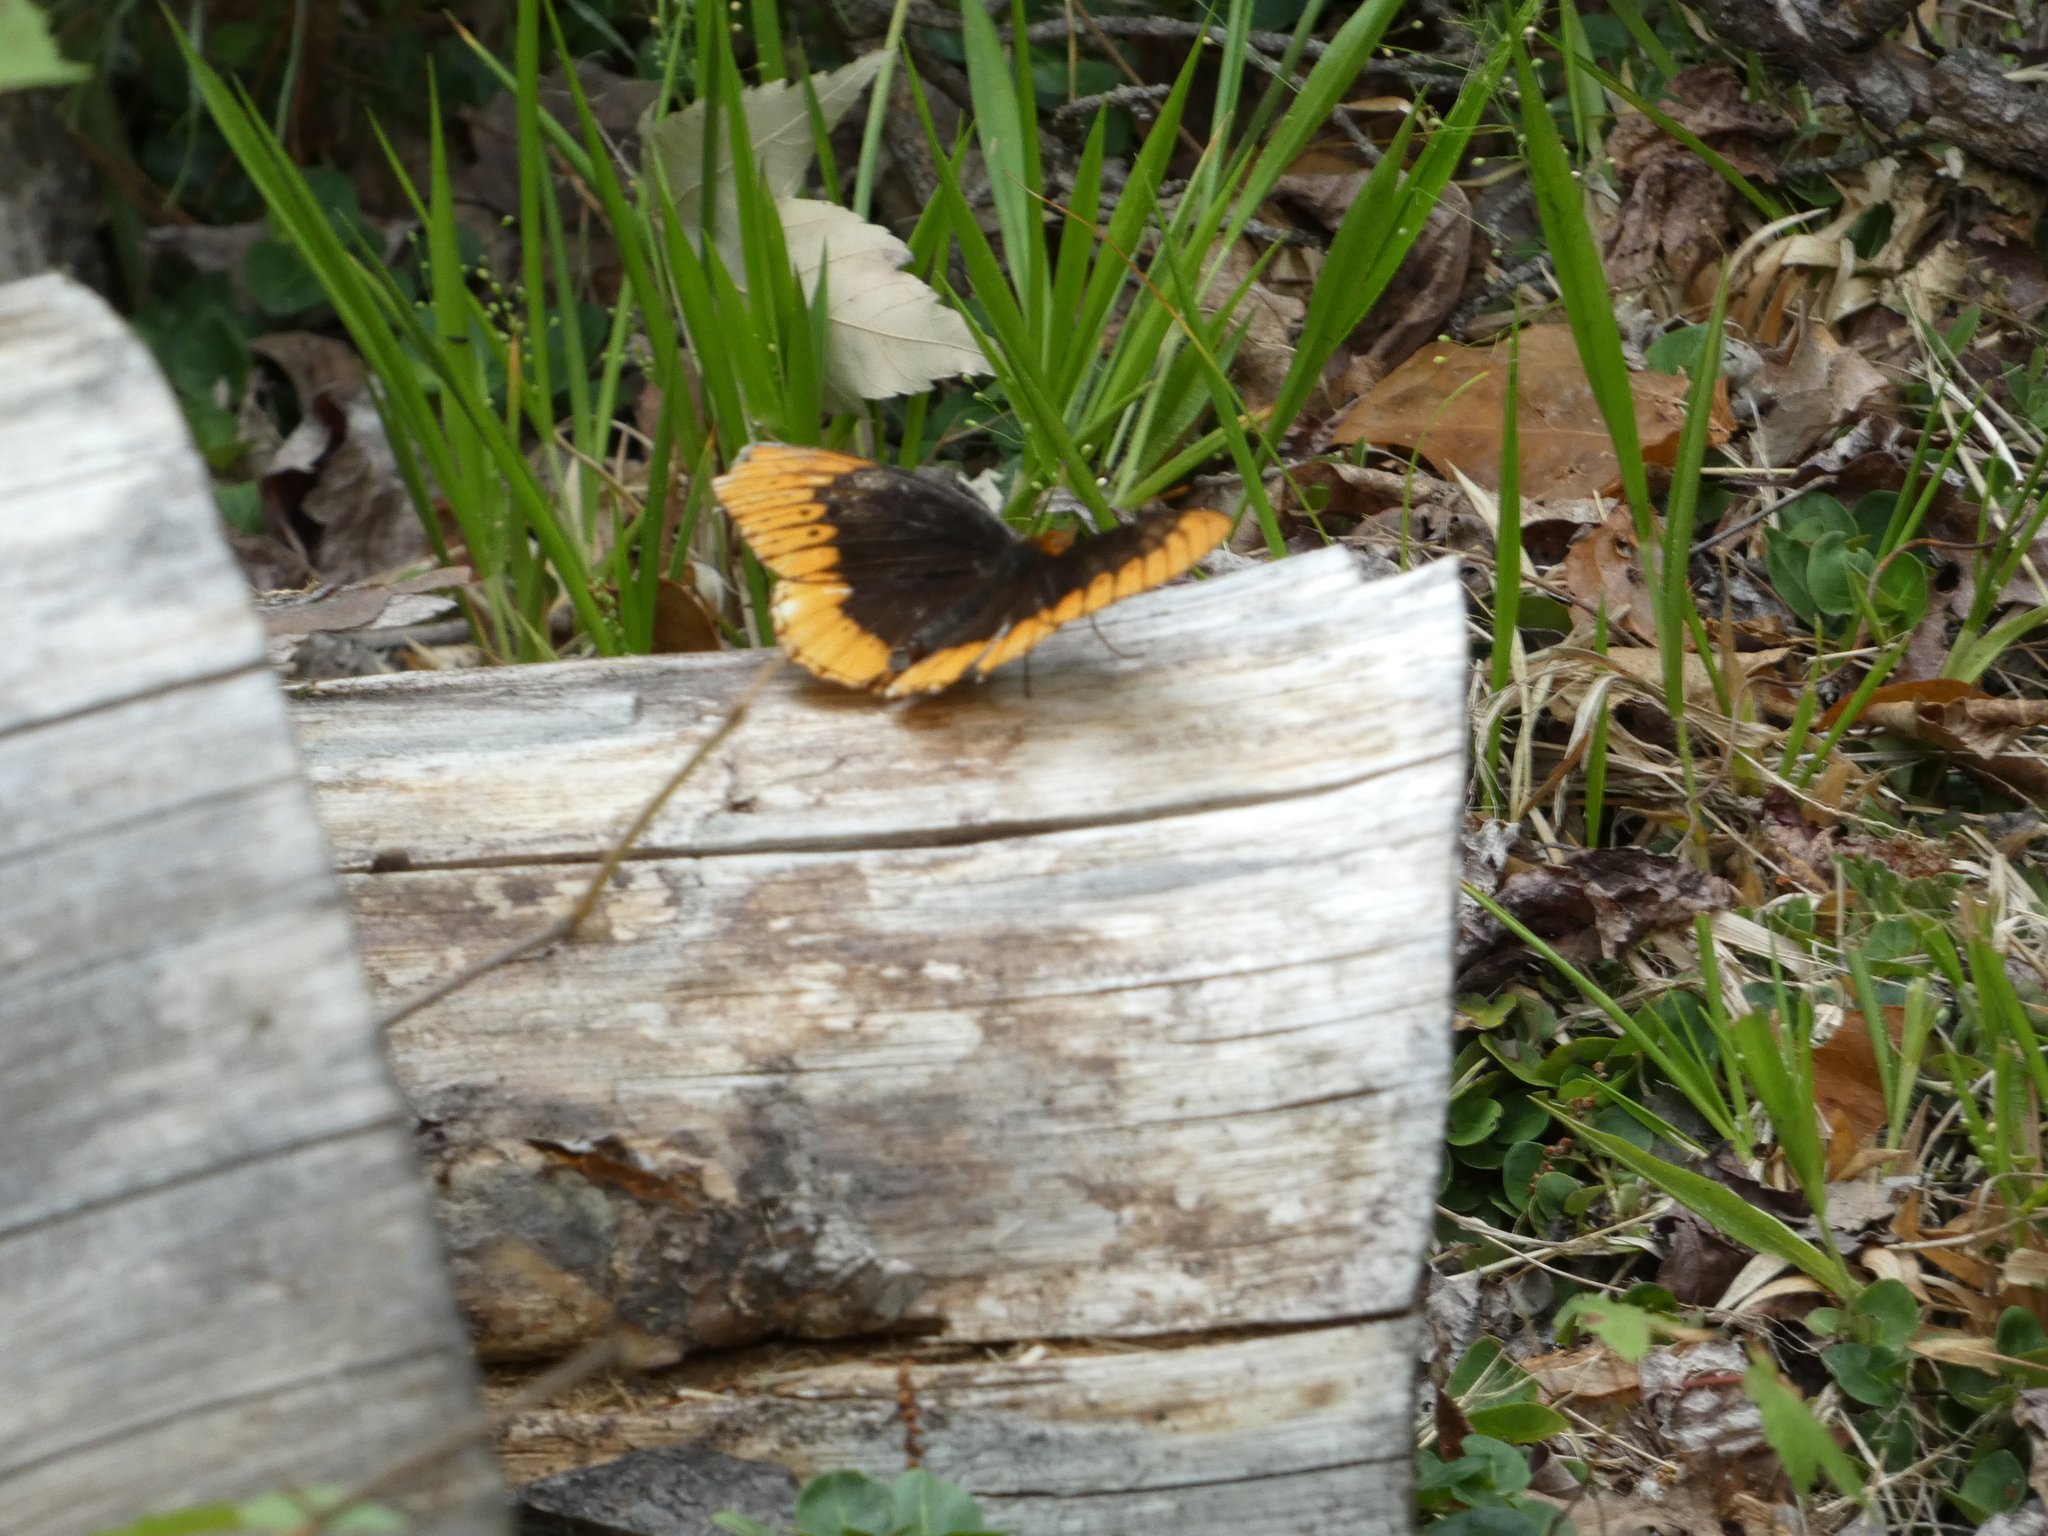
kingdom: Animalia
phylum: Arthropoda
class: Insecta
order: Lepidoptera
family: Nymphalidae
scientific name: Nymphalidae
